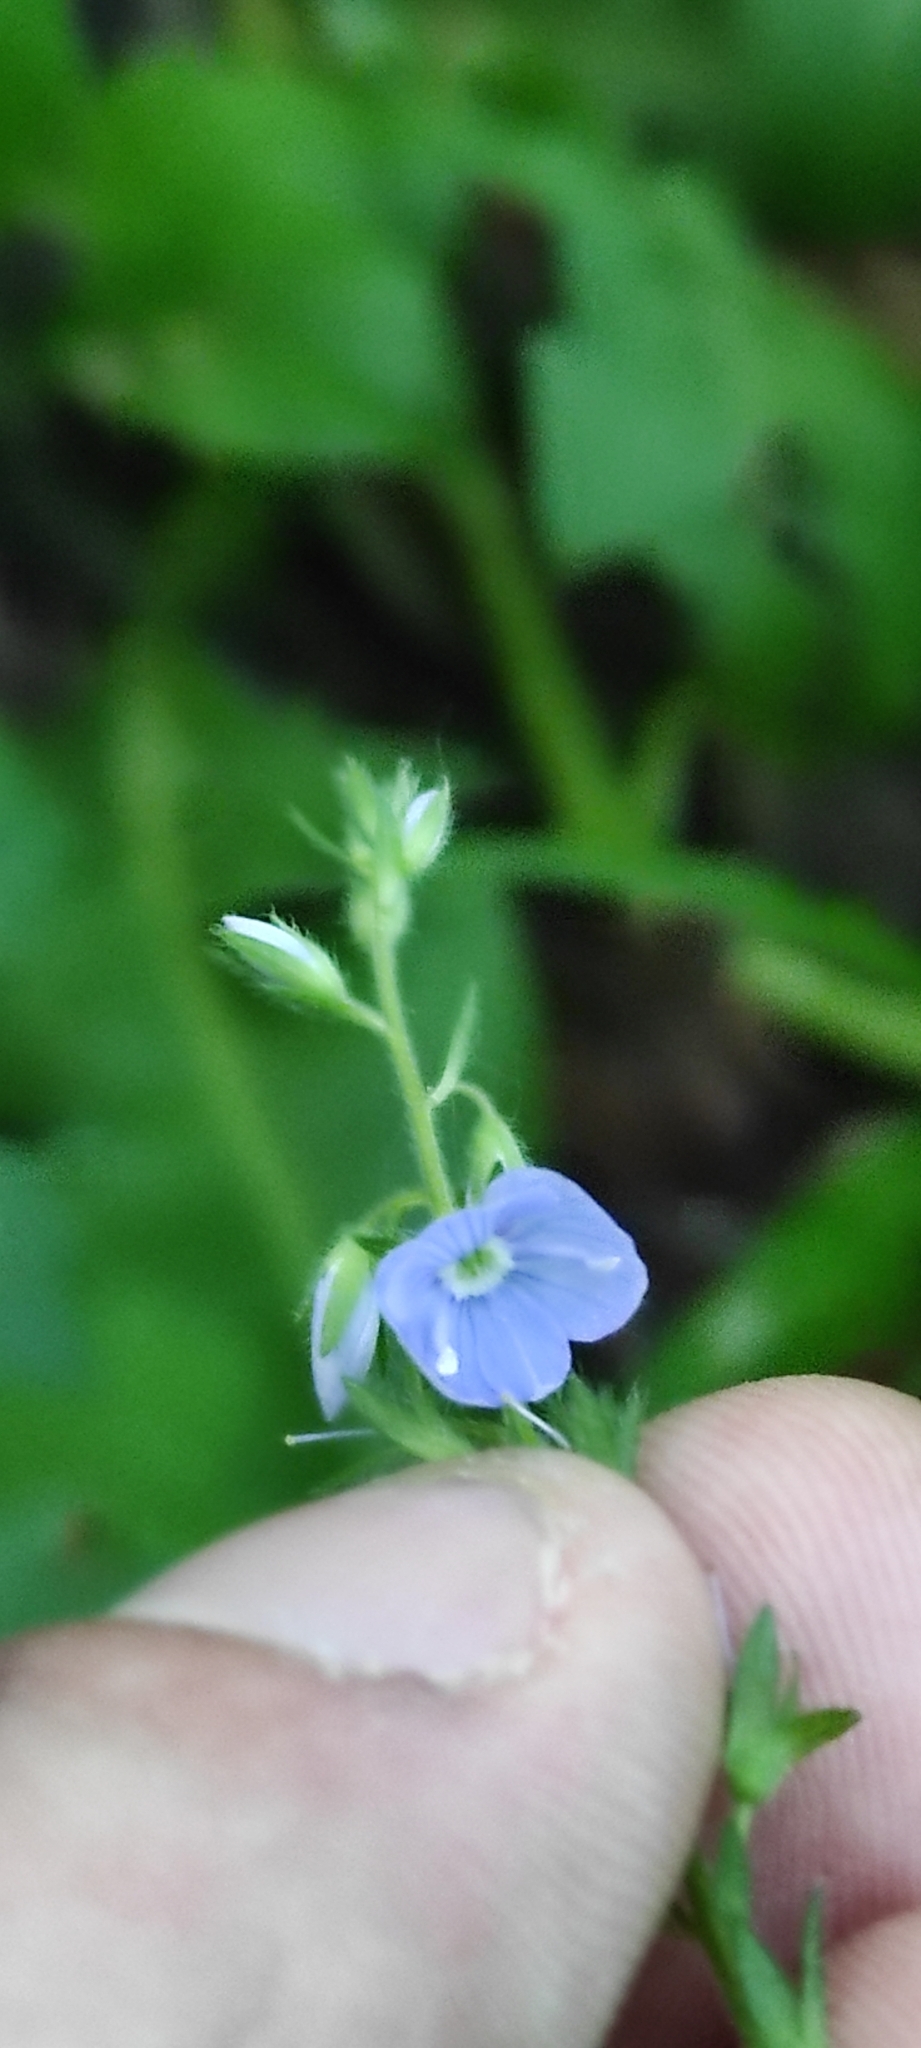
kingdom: Plantae
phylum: Tracheophyta
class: Magnoliopsida
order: Lamiales
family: Plantaginaceae
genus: Veronica
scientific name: Veronica chamaedrys
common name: Germander speedwell
